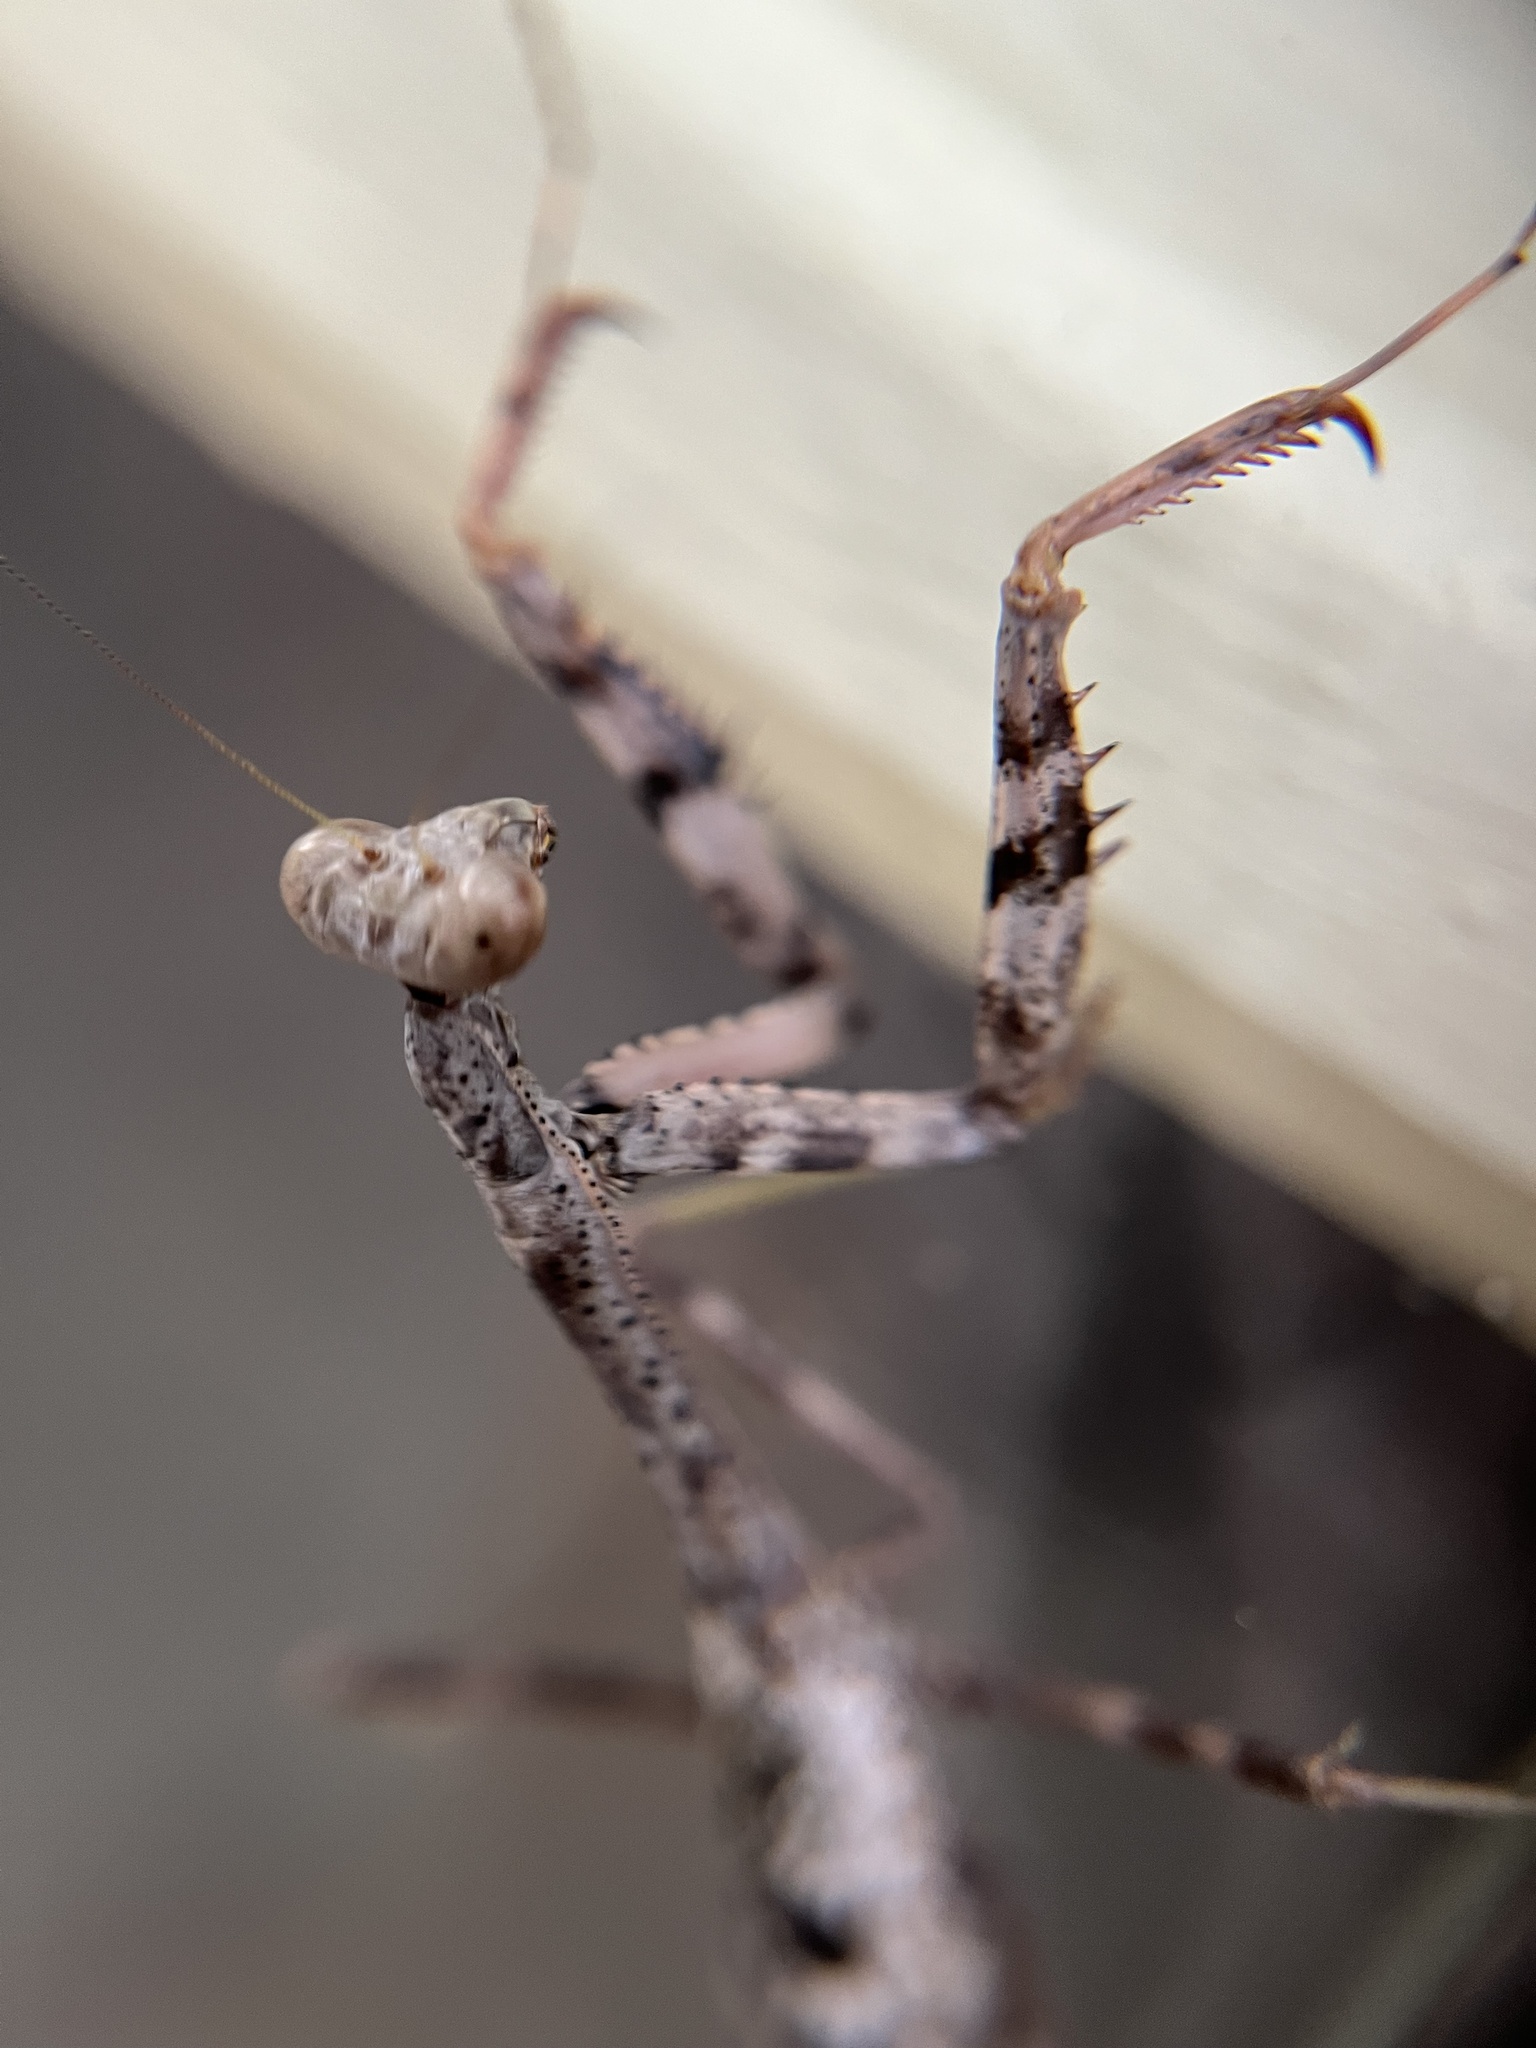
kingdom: Animalia
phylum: Arthropoda
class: Insecta
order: Mantodea
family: Mantidae
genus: Stagmomantis
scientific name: Stagmomantis carolina
